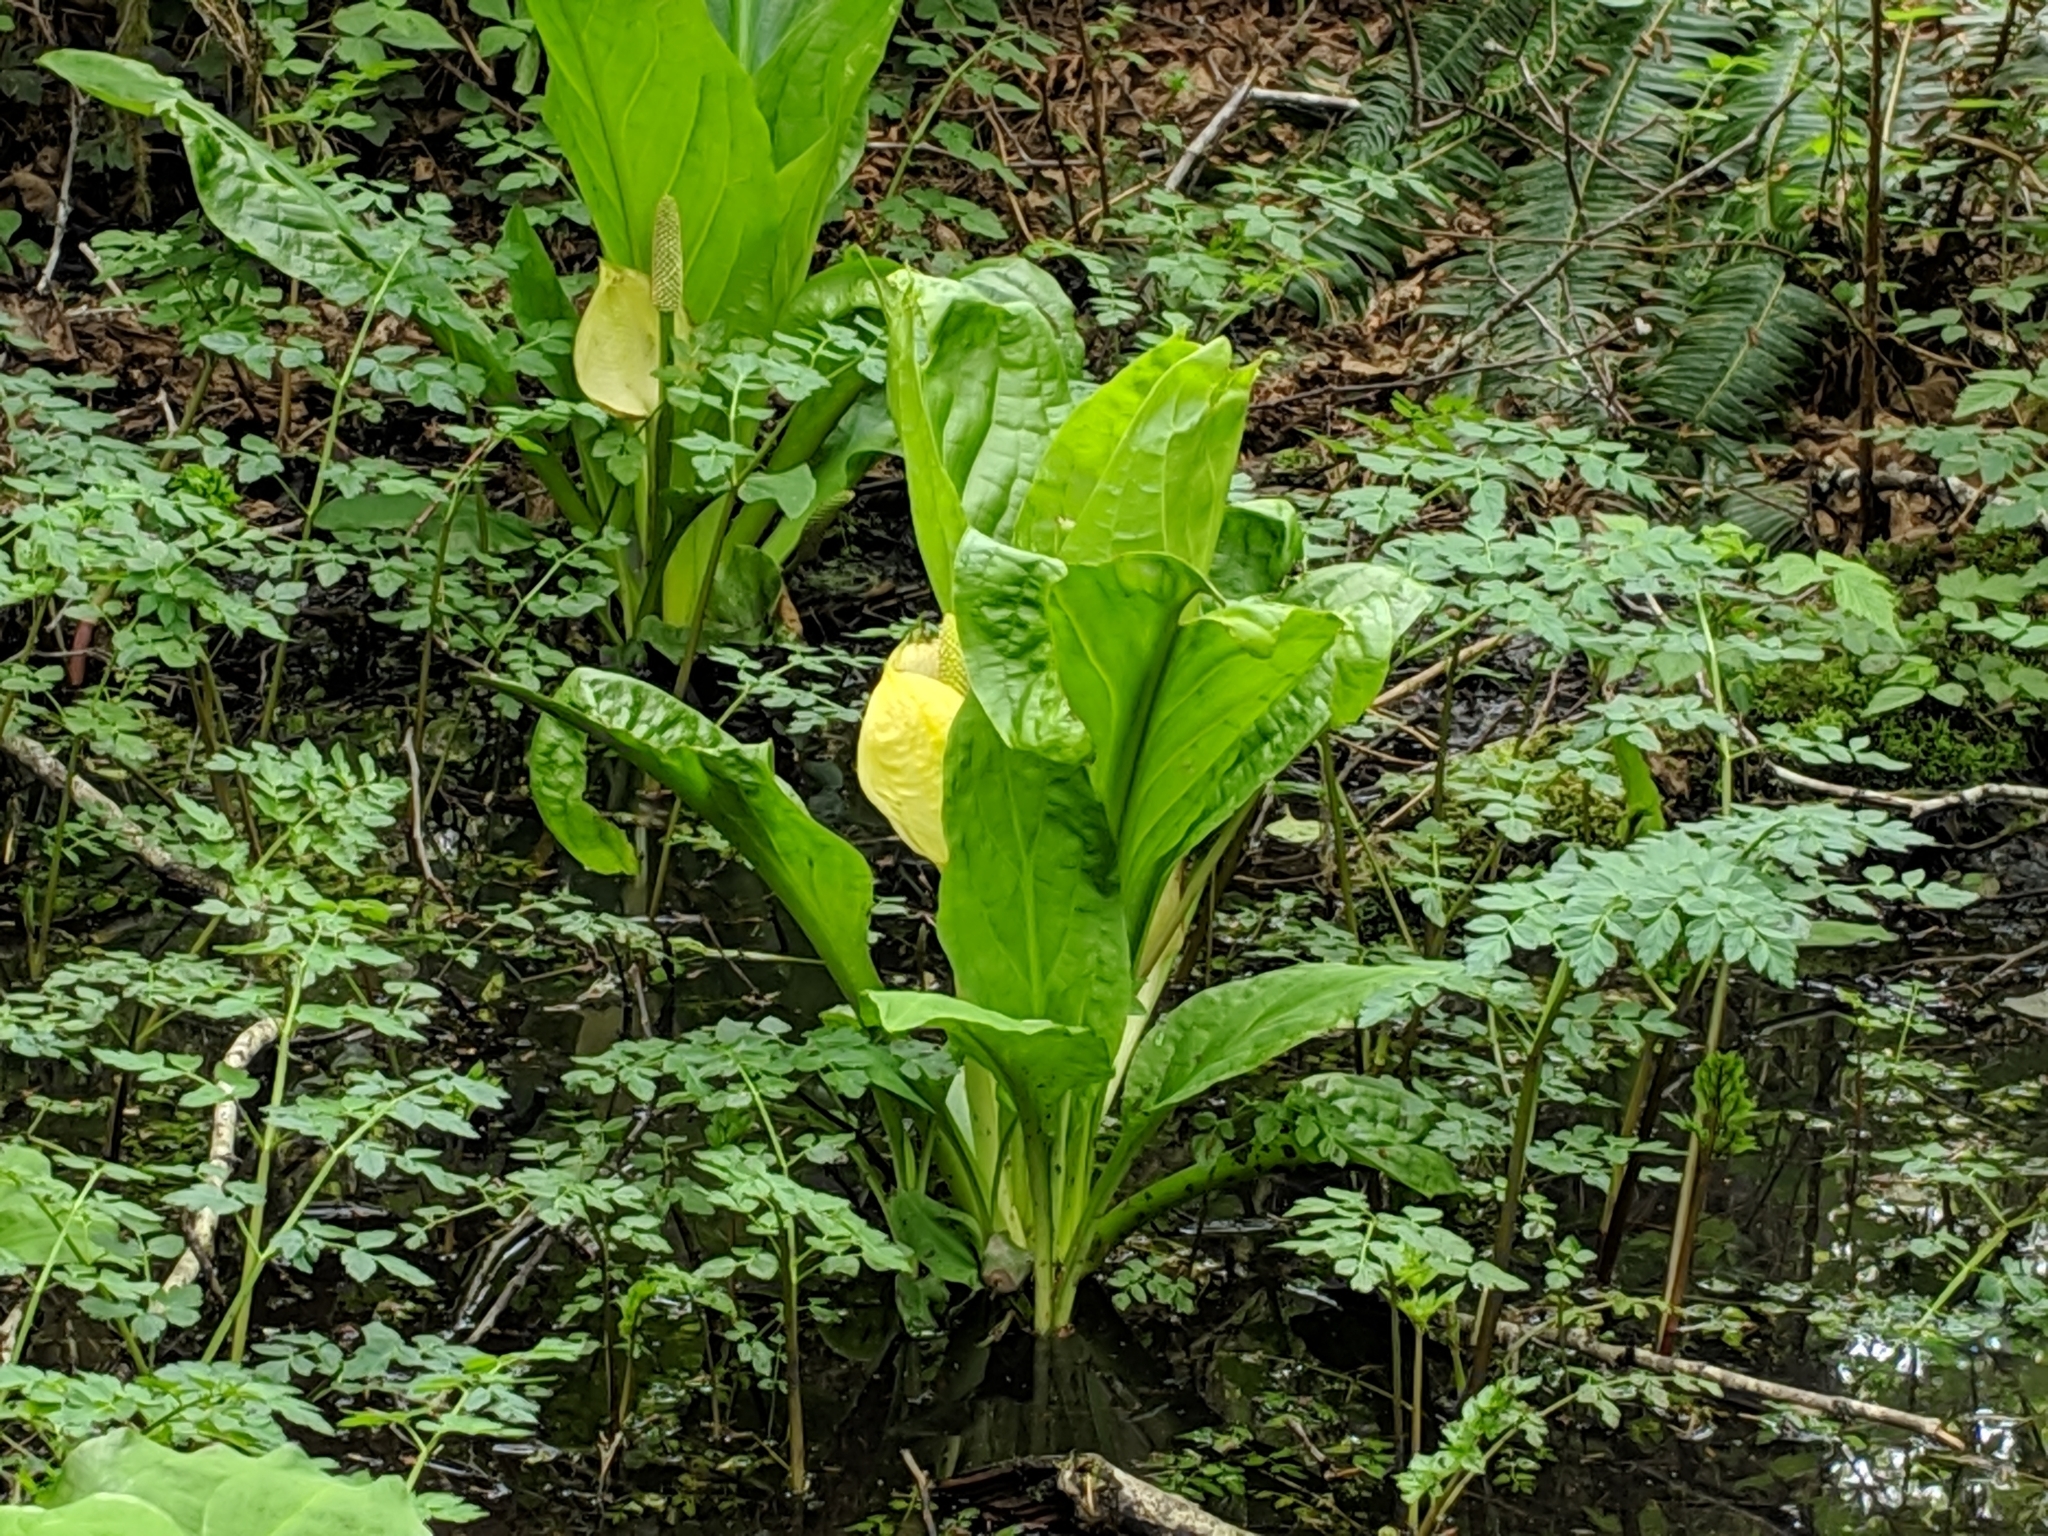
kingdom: Plantae
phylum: Tracheophyta
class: Liliopsida
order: Alismatales
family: Araceae
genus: Lysichiton
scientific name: Lysichiton americanus
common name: American skunk cabbage
